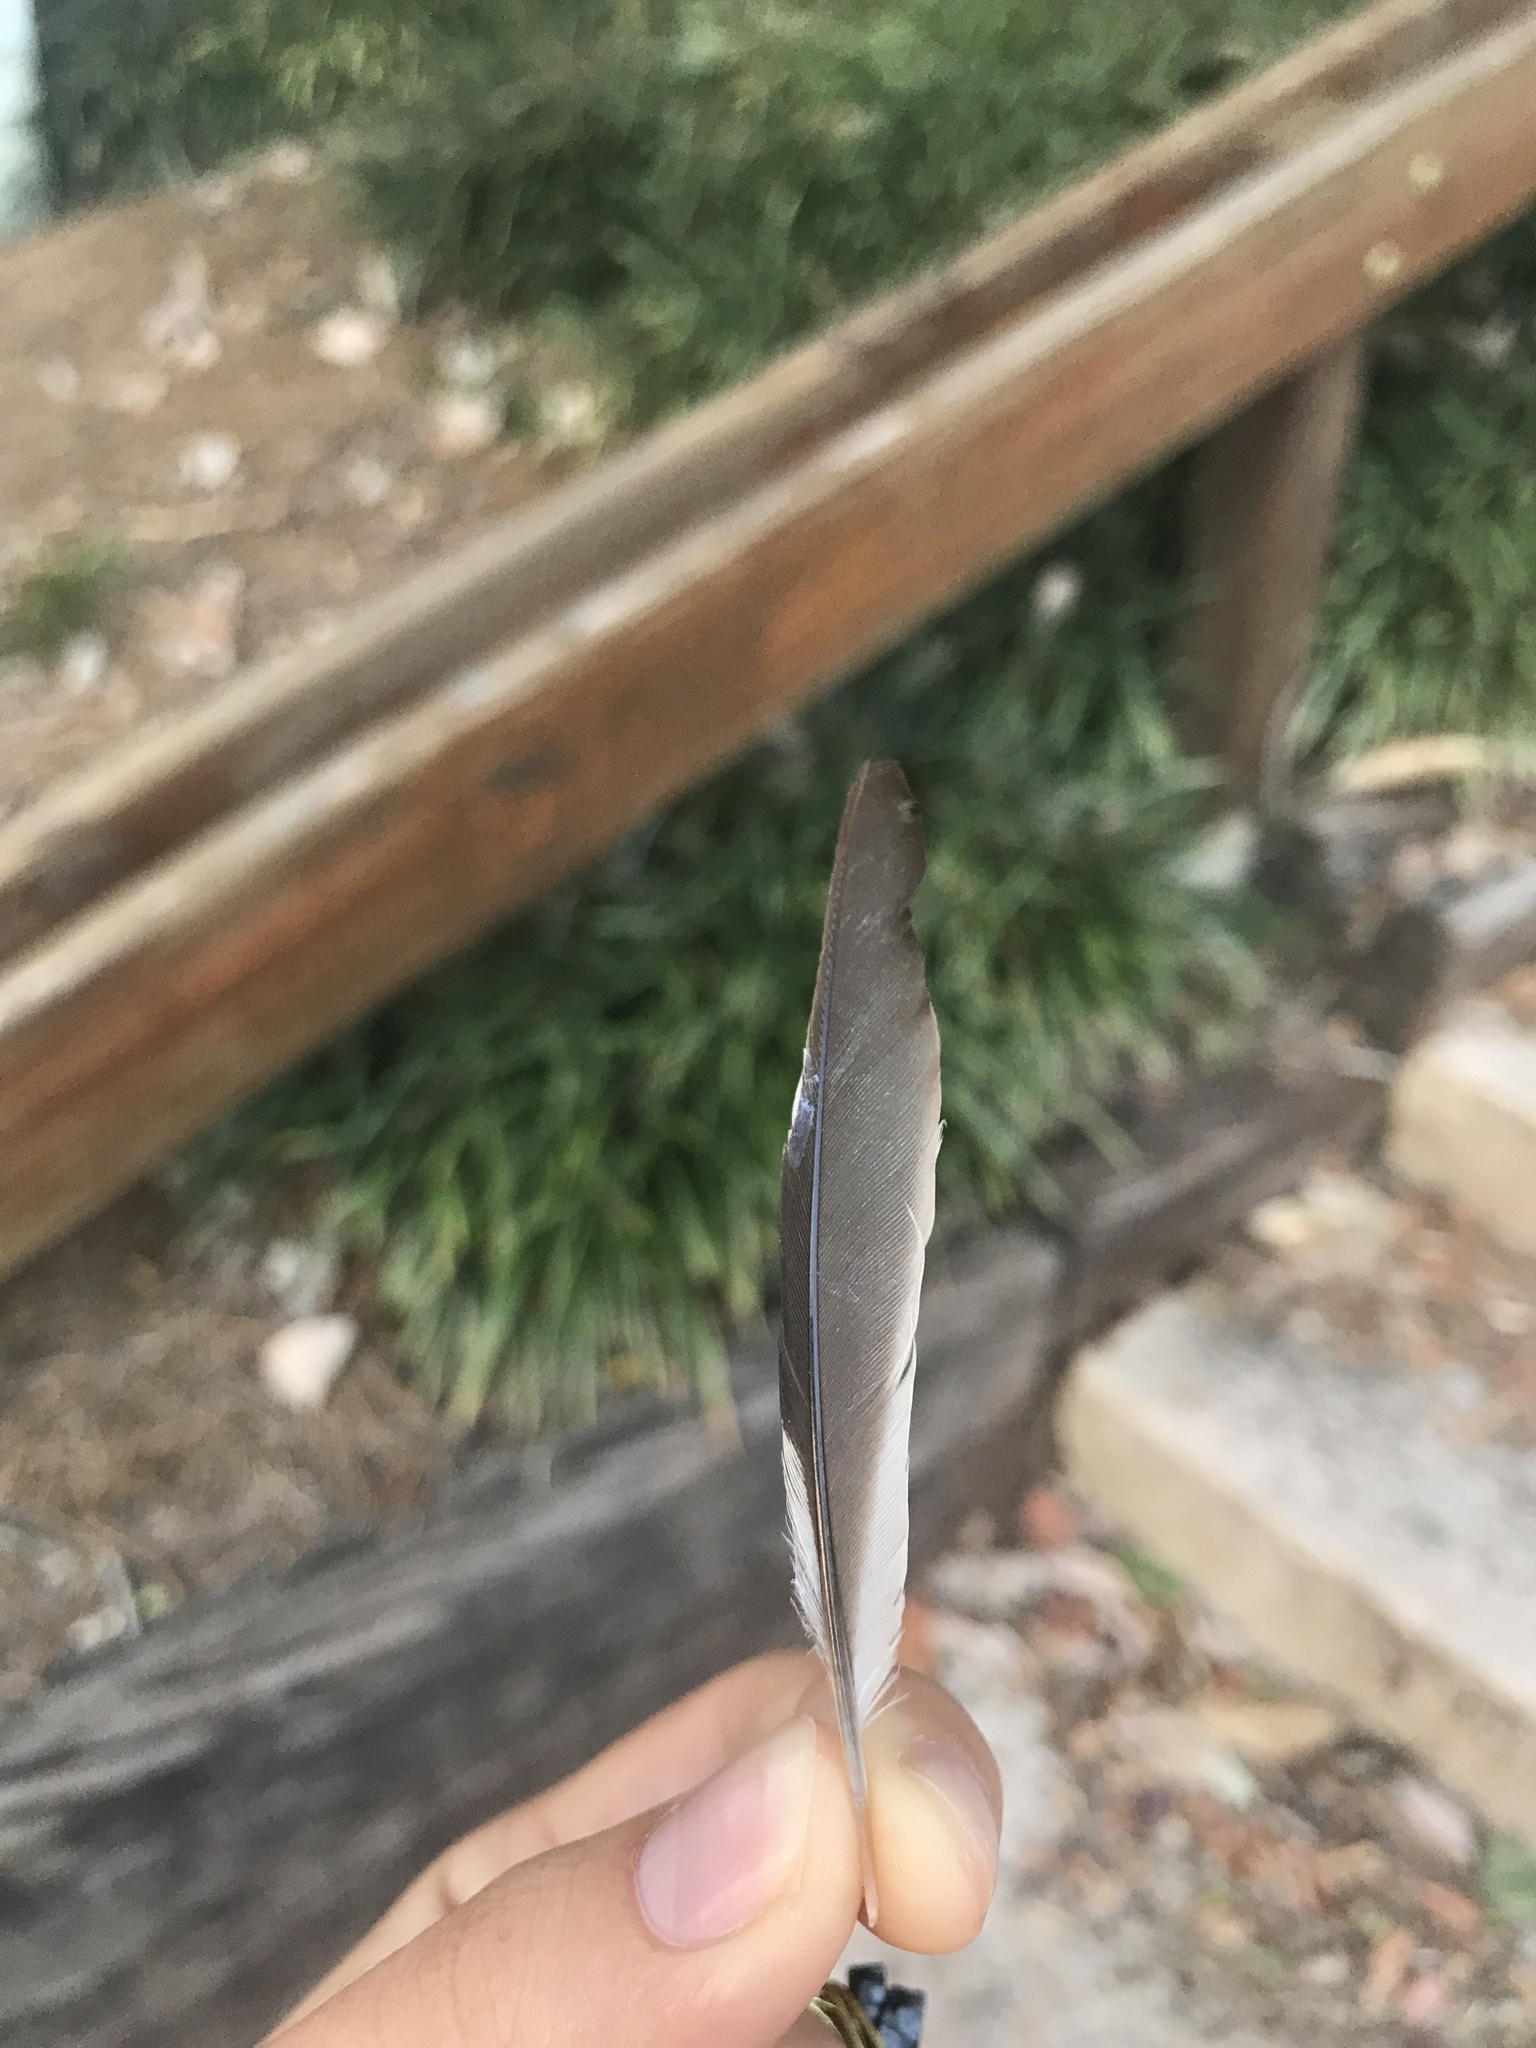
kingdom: Animalia
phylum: Chordata
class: Aves
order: Passeriformes
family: Passerellidae
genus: Pipilo
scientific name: Pipilo erythrophthalmus
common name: Eastern towhee
